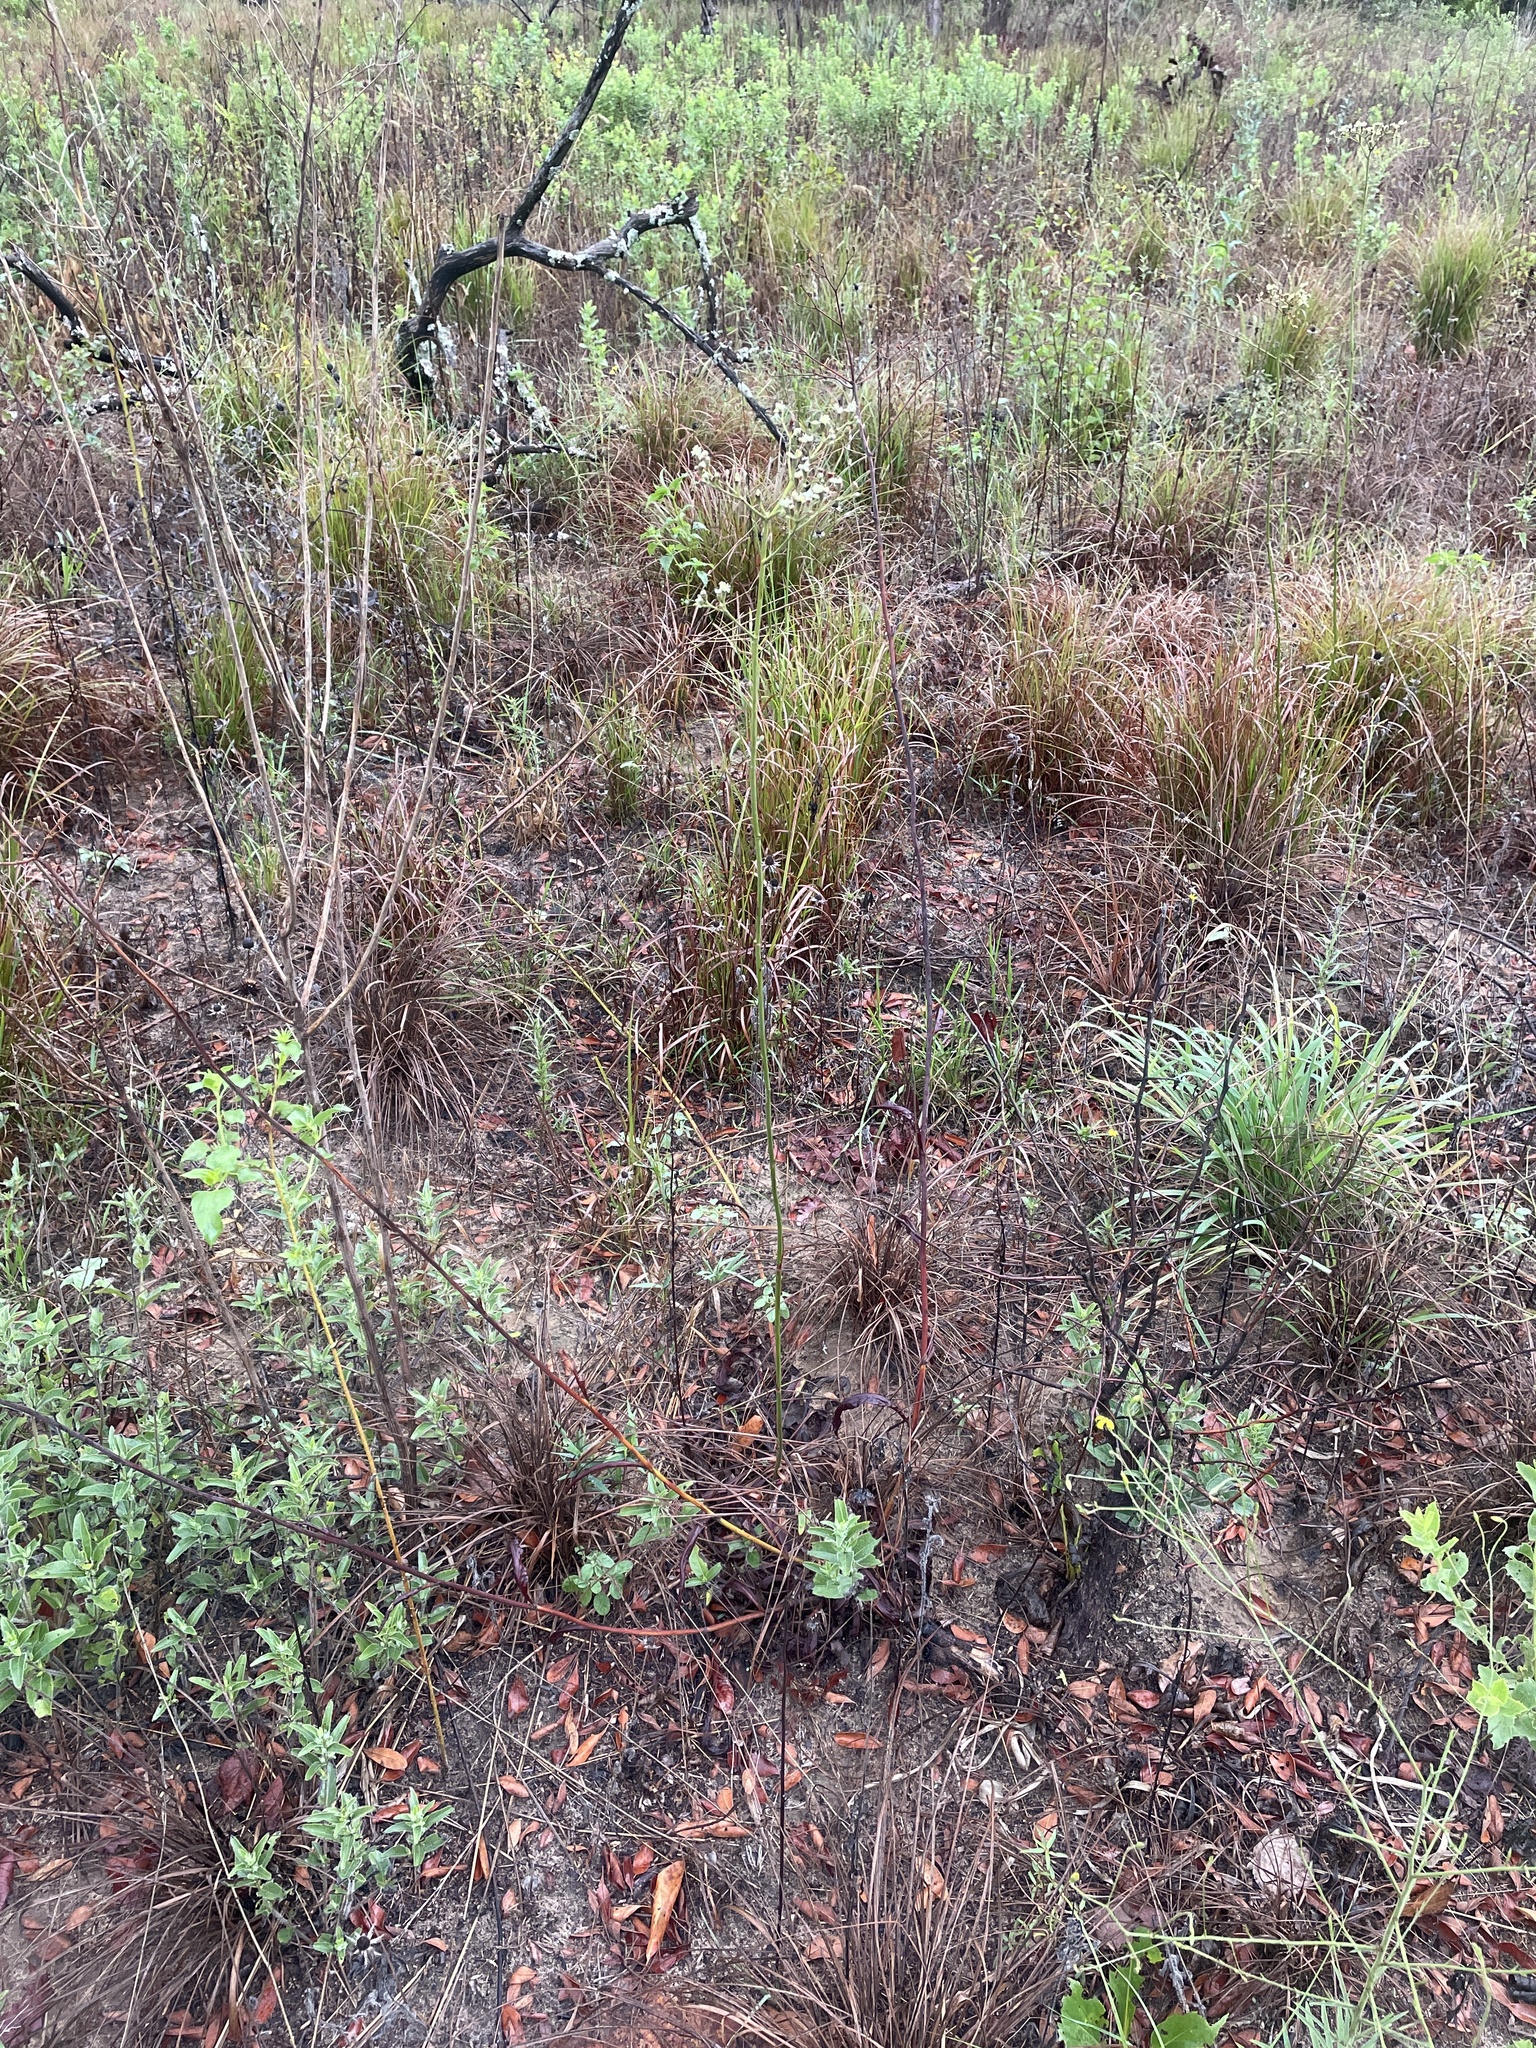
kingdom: Plantae
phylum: Tracheophyta
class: Magnoliopsida
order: Caryophyllales
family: Polygonaceae
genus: Eriogonum
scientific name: Eriogonum longifolium
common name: Longleaf wild buckwheat
